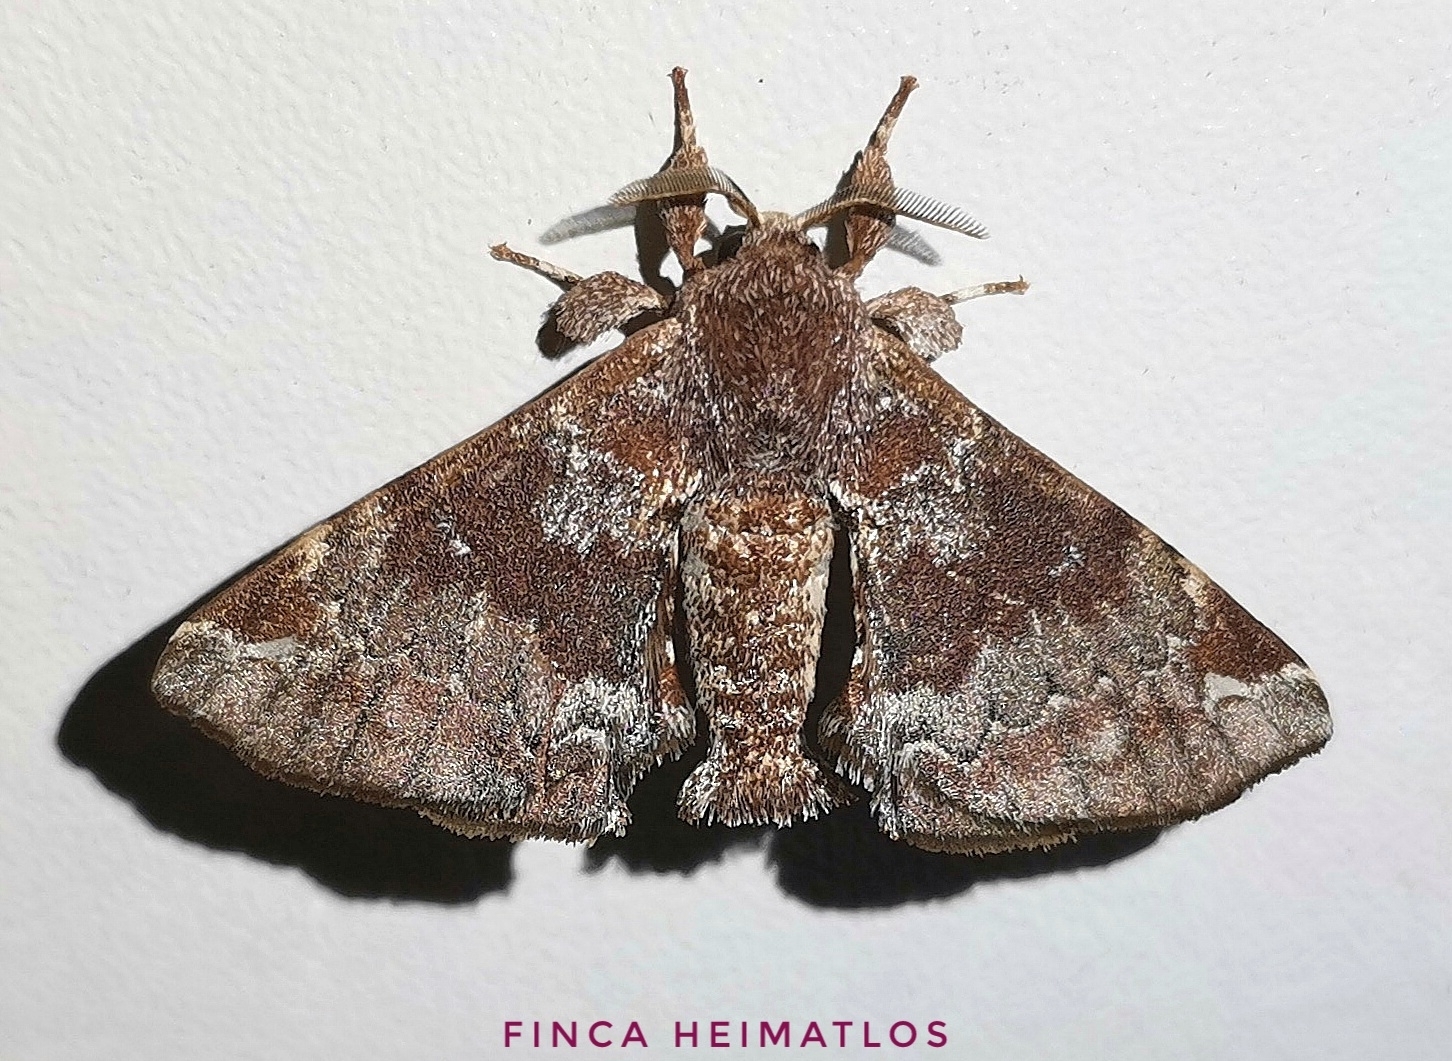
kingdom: Animalia
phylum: Arthropoda
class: Insecta
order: Lepidoptera
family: Apatelodidae
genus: Hygrochroa
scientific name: Hygrochroa Apatelodes albipunctata
